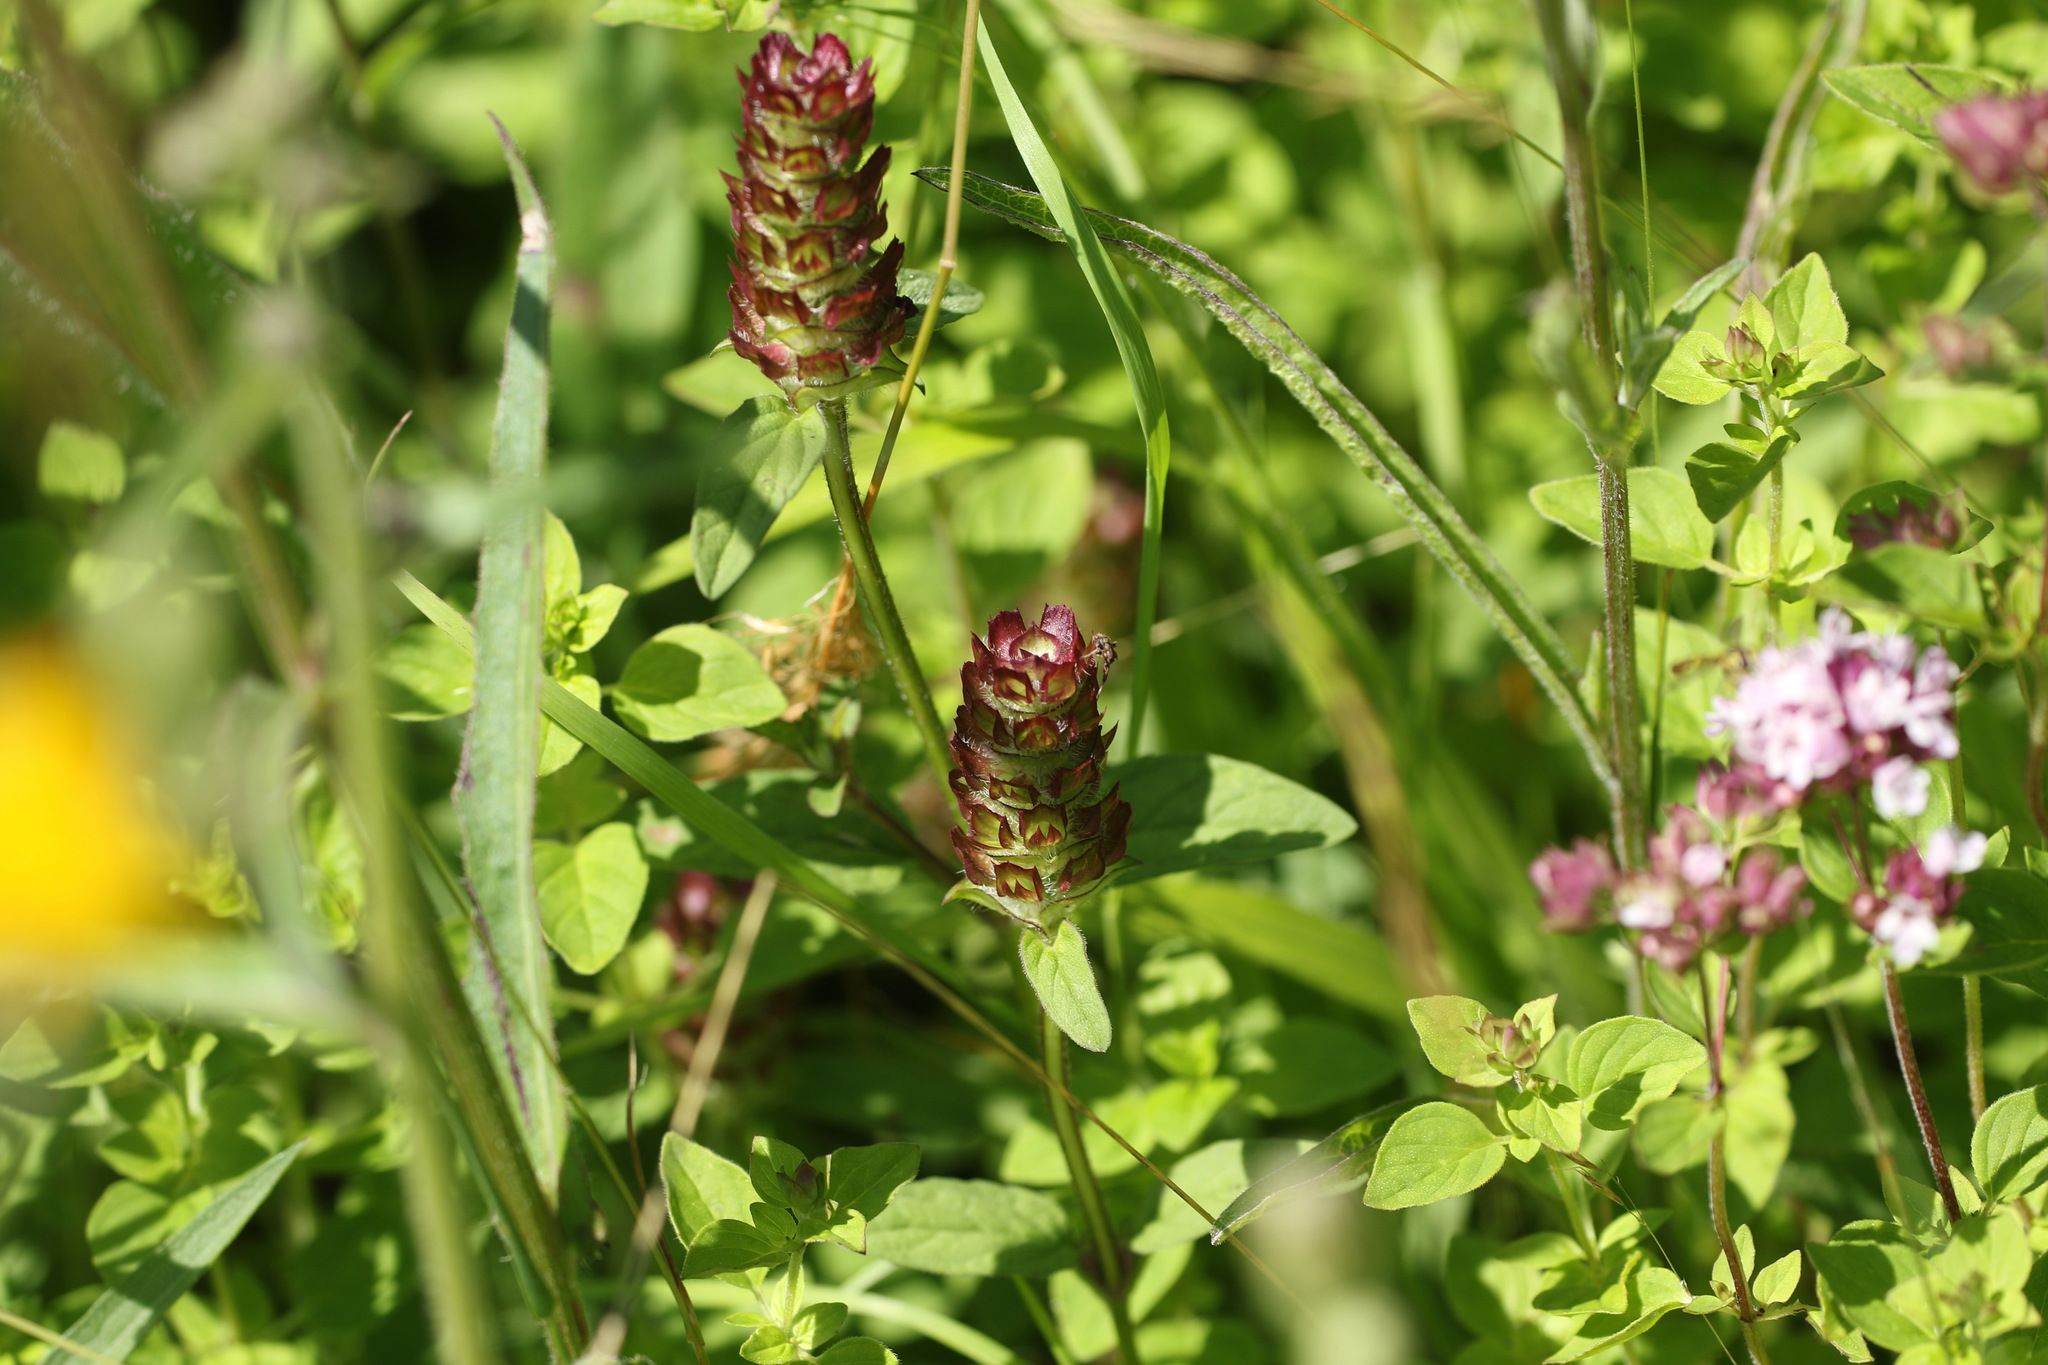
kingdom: Plantae
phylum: Tracheophyta
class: Magnoliopsida
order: Lamiales
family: Lamiaceae
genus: Prunella
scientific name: Prunella vulgaris
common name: Heal-all
